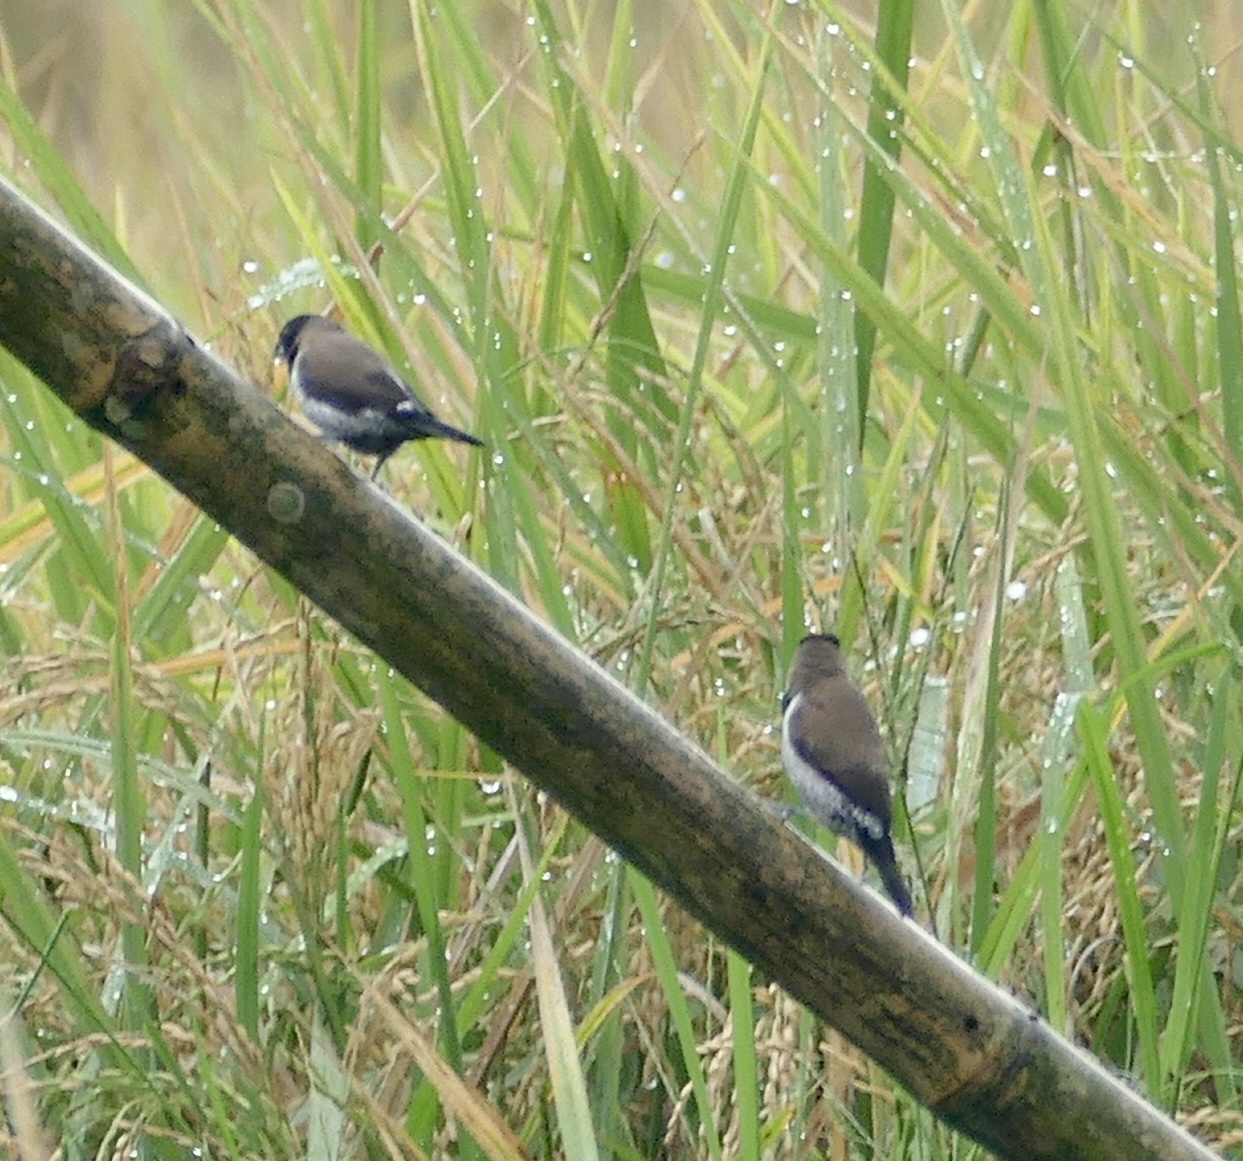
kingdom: Animalia
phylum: Chordata
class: Aves
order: Passeriformes
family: Estrildidae
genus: Lonchura
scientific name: Lonchura molucca
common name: Black-faced munia
